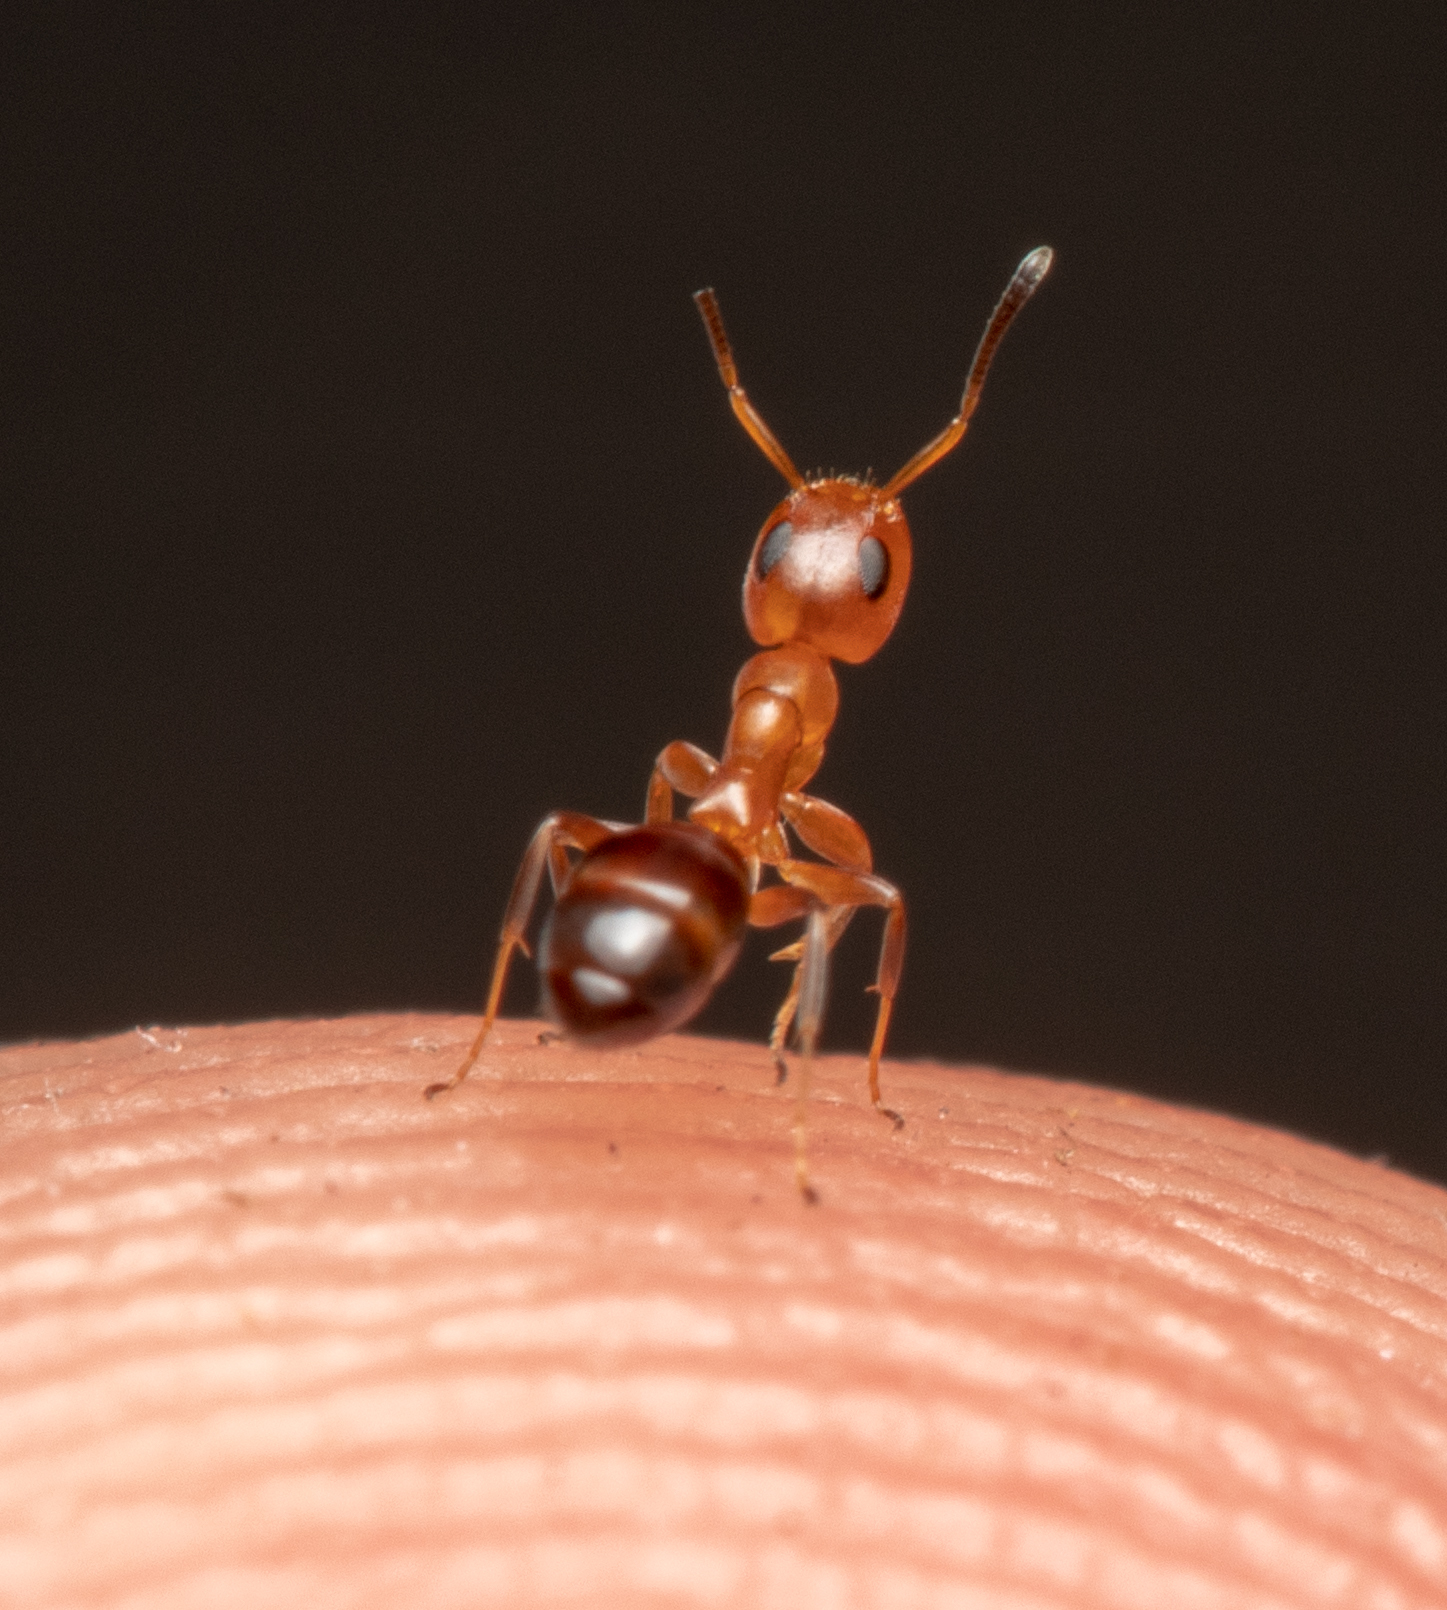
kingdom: Animalia
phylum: Arthropoda
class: Insecta
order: Hymenoptera
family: Formicidae
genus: Turneria
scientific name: Turneria bidentata
